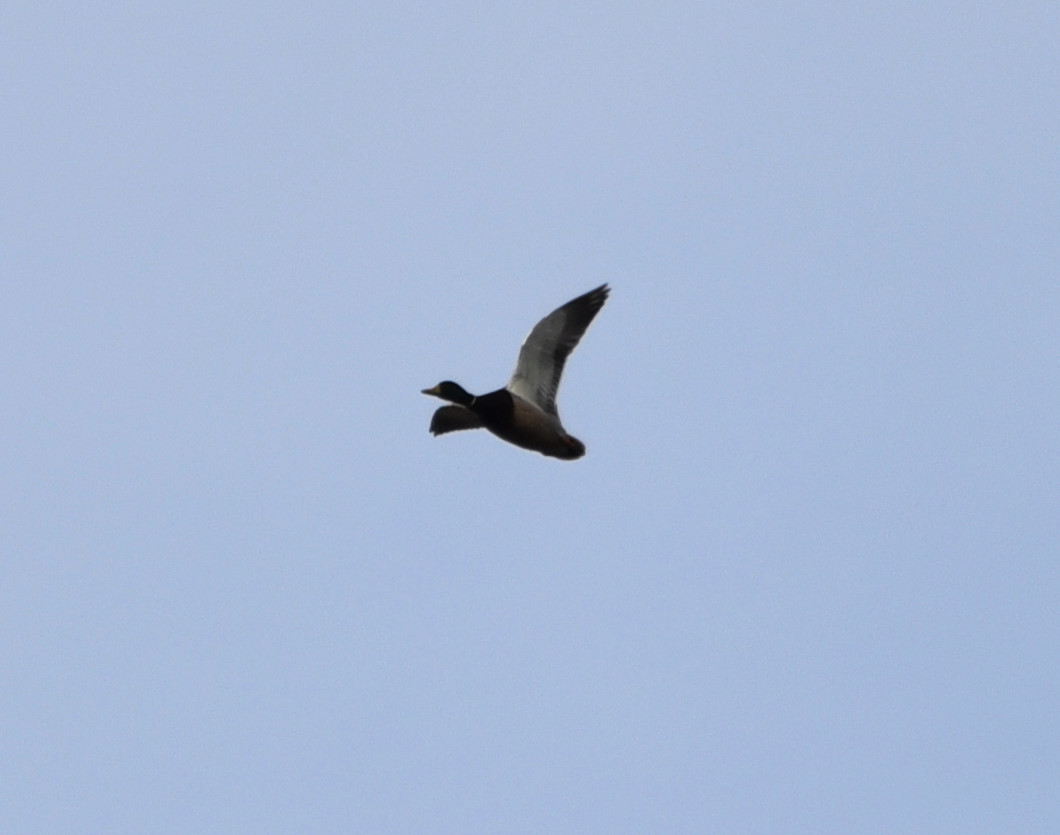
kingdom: Animalia
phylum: Chordata
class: Aves
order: Anseriformes
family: Anatidae
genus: Anas
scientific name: Anas platyrhynchos
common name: Mallard
